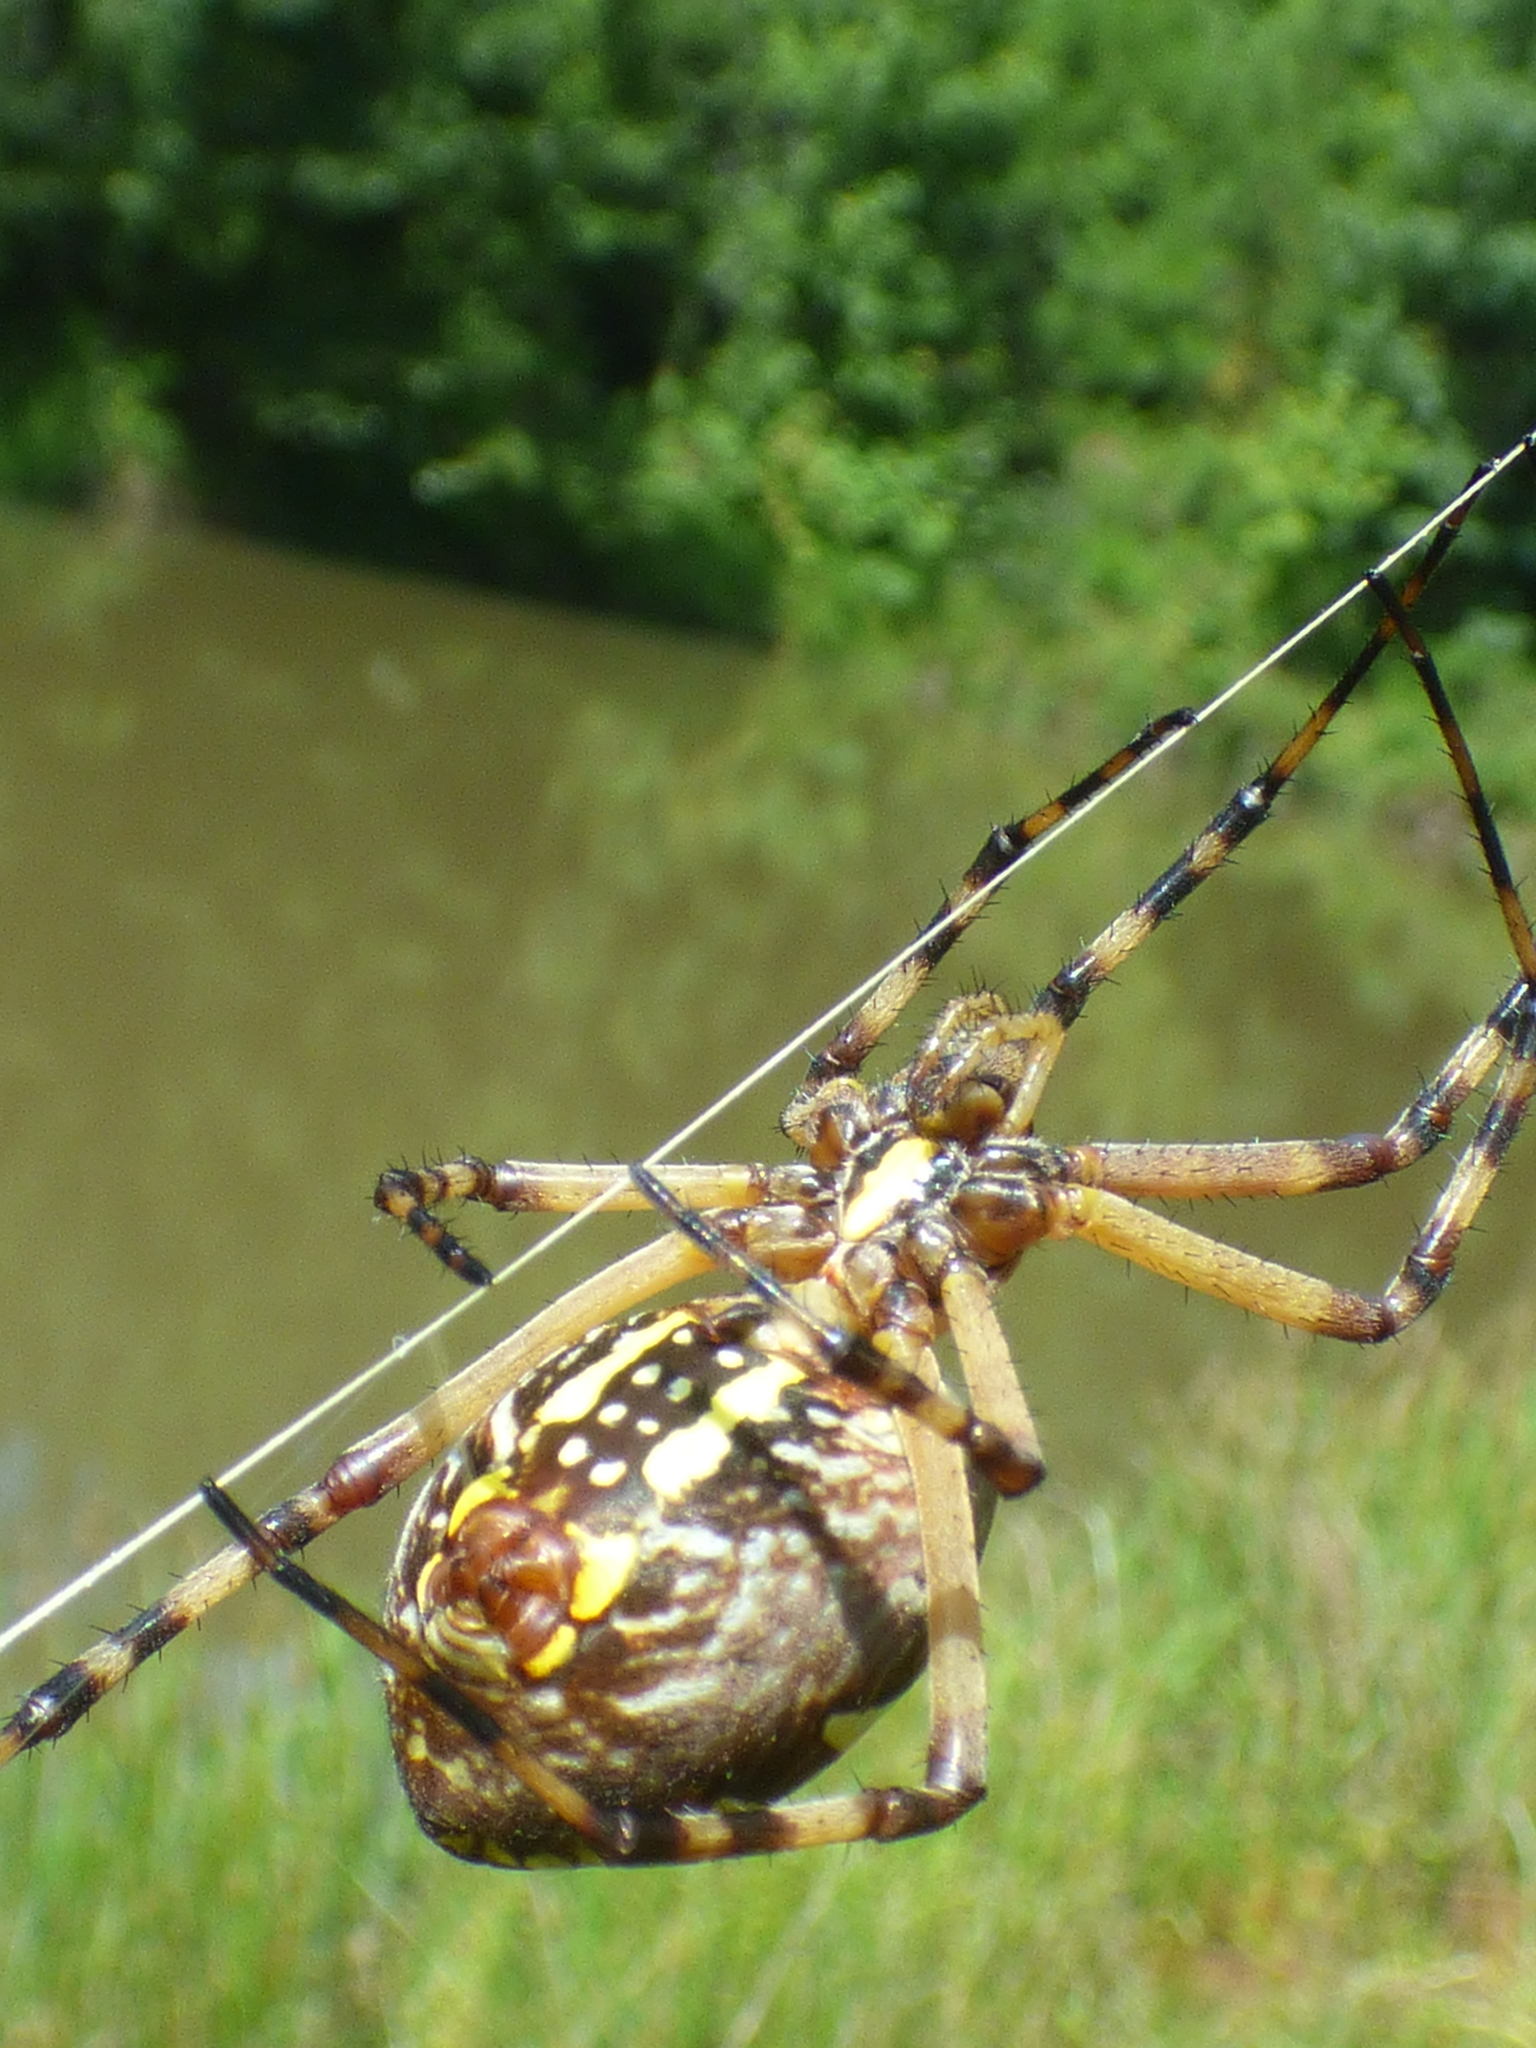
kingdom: Animalia
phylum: Arthropoda
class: Arachnida
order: Araneae
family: Araneidae
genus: Argiope
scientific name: Argiope aurantia
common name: Orb weavers
